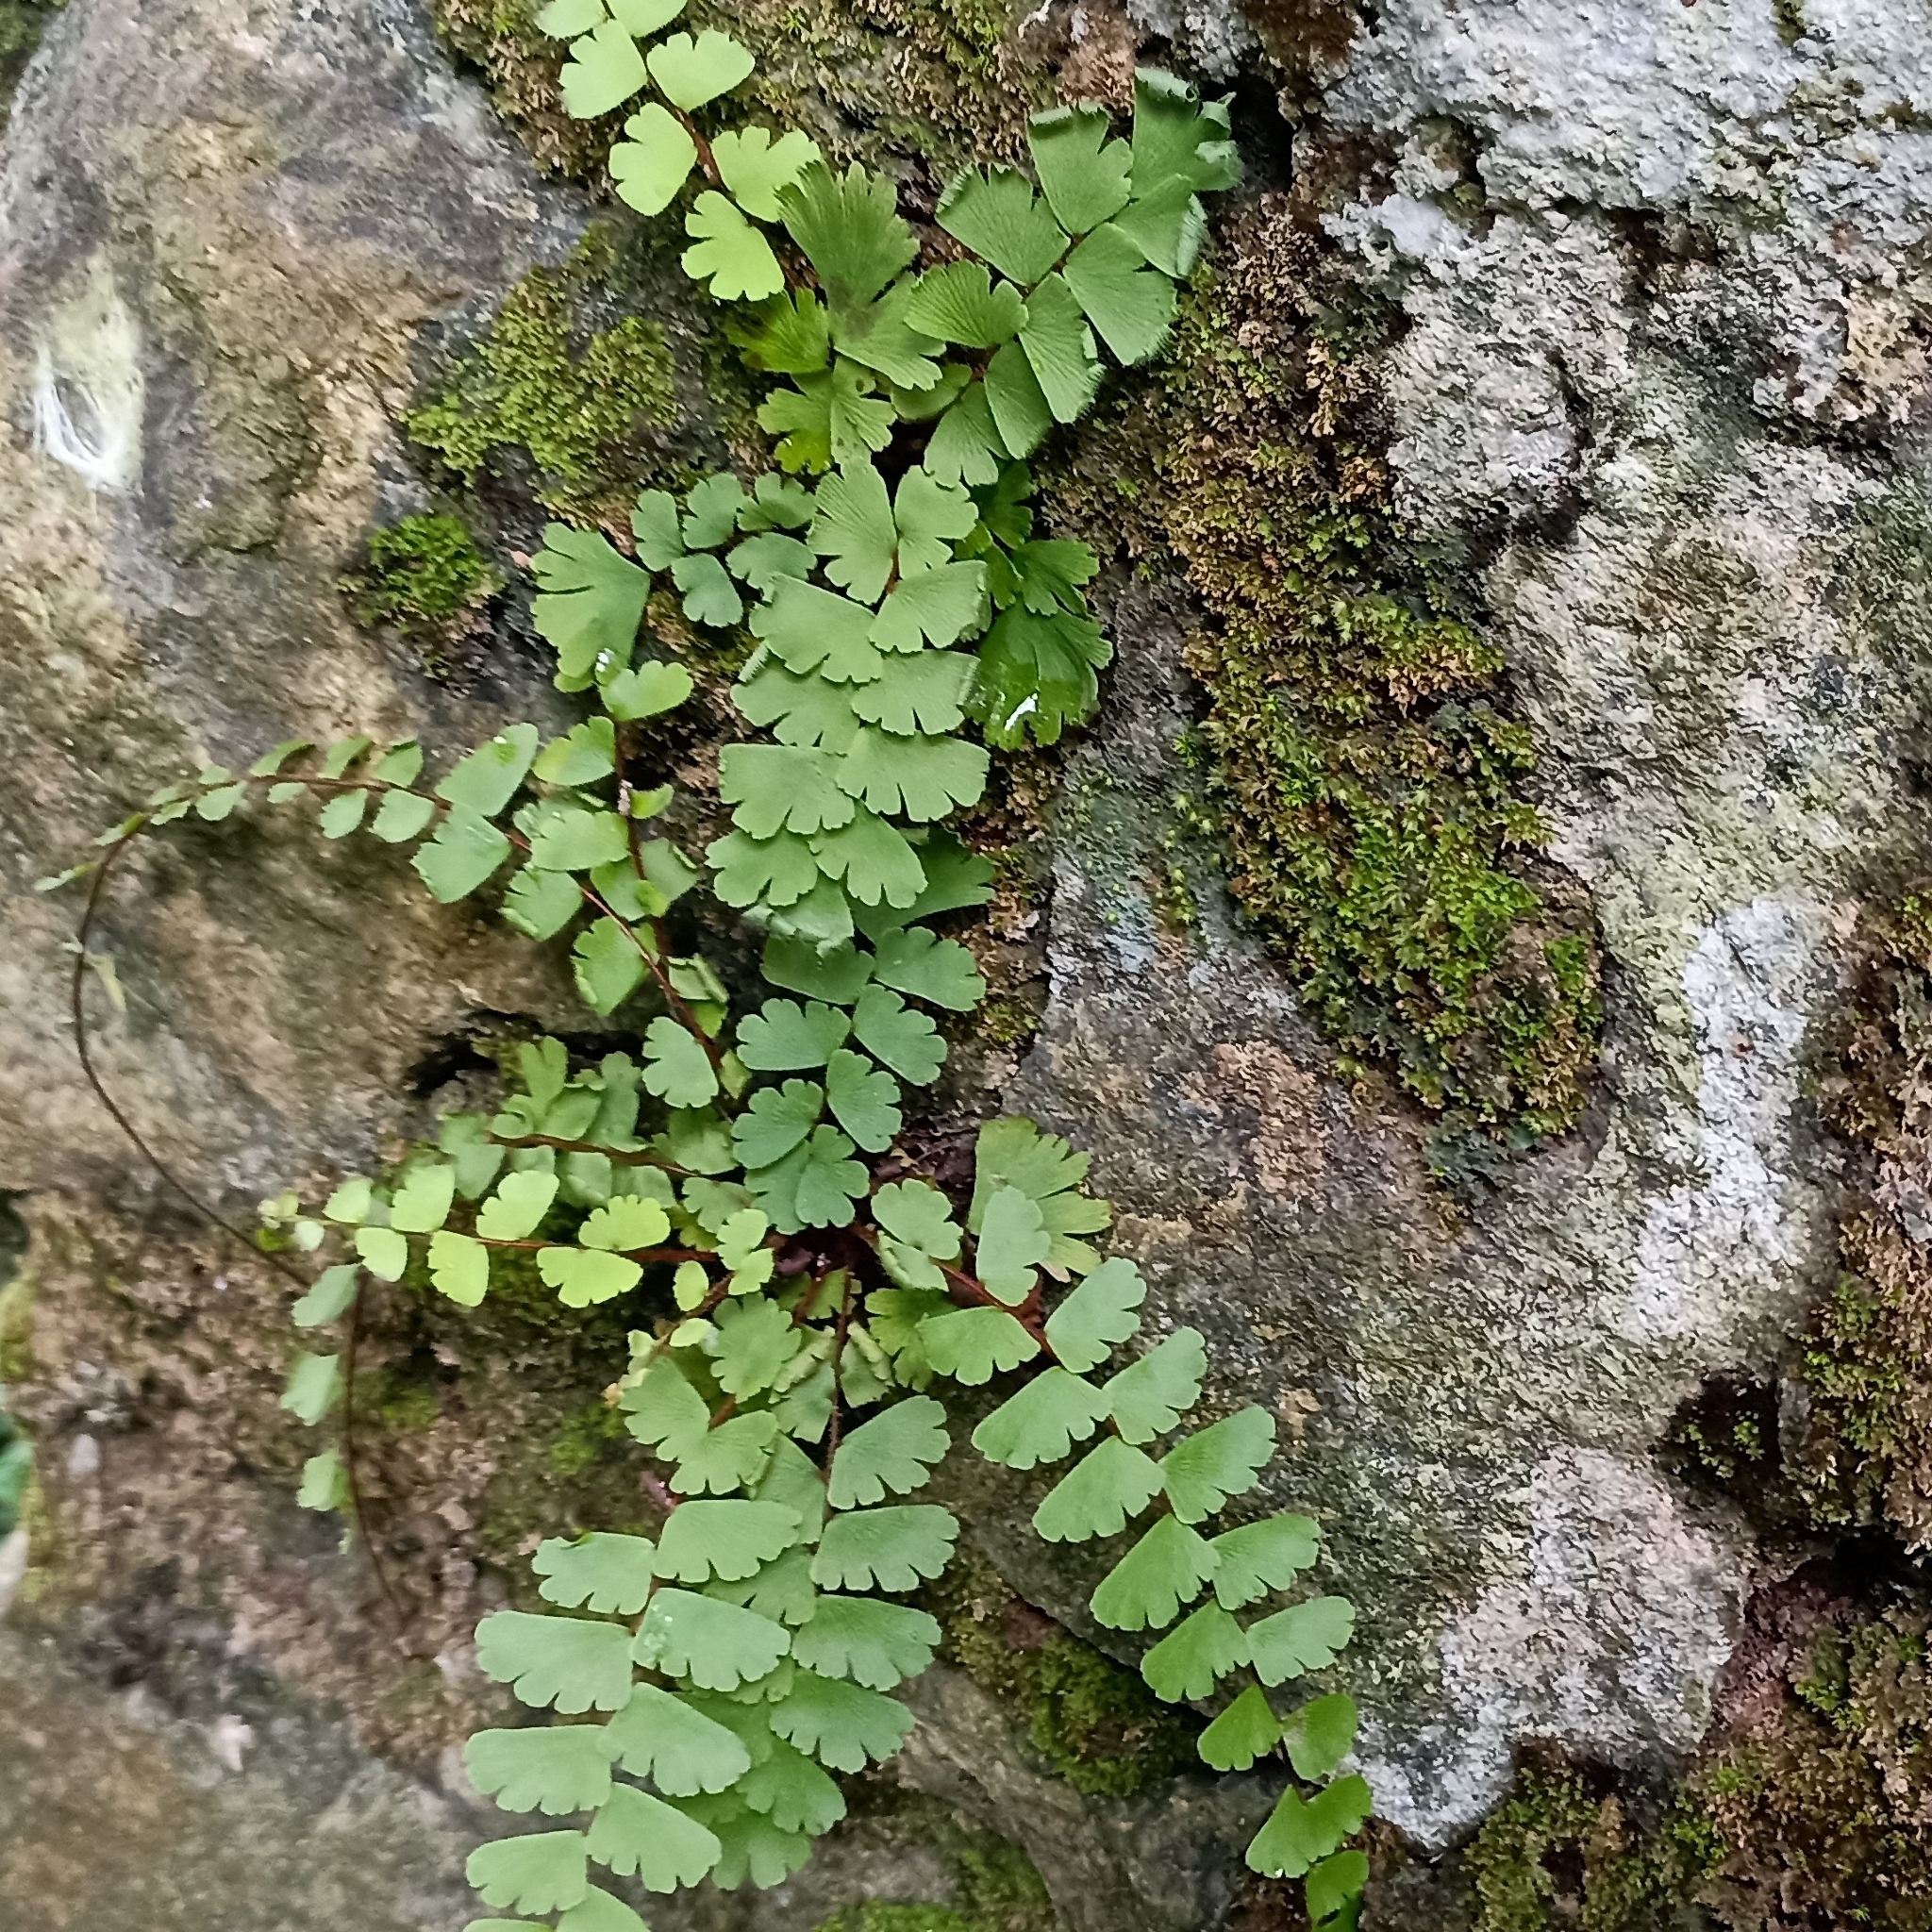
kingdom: Plantae
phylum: Tracheophyta
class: Polypodiopsida
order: Polypodiales
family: Pteridaceae
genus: Adiantum
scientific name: Adiantum edgeworthii
